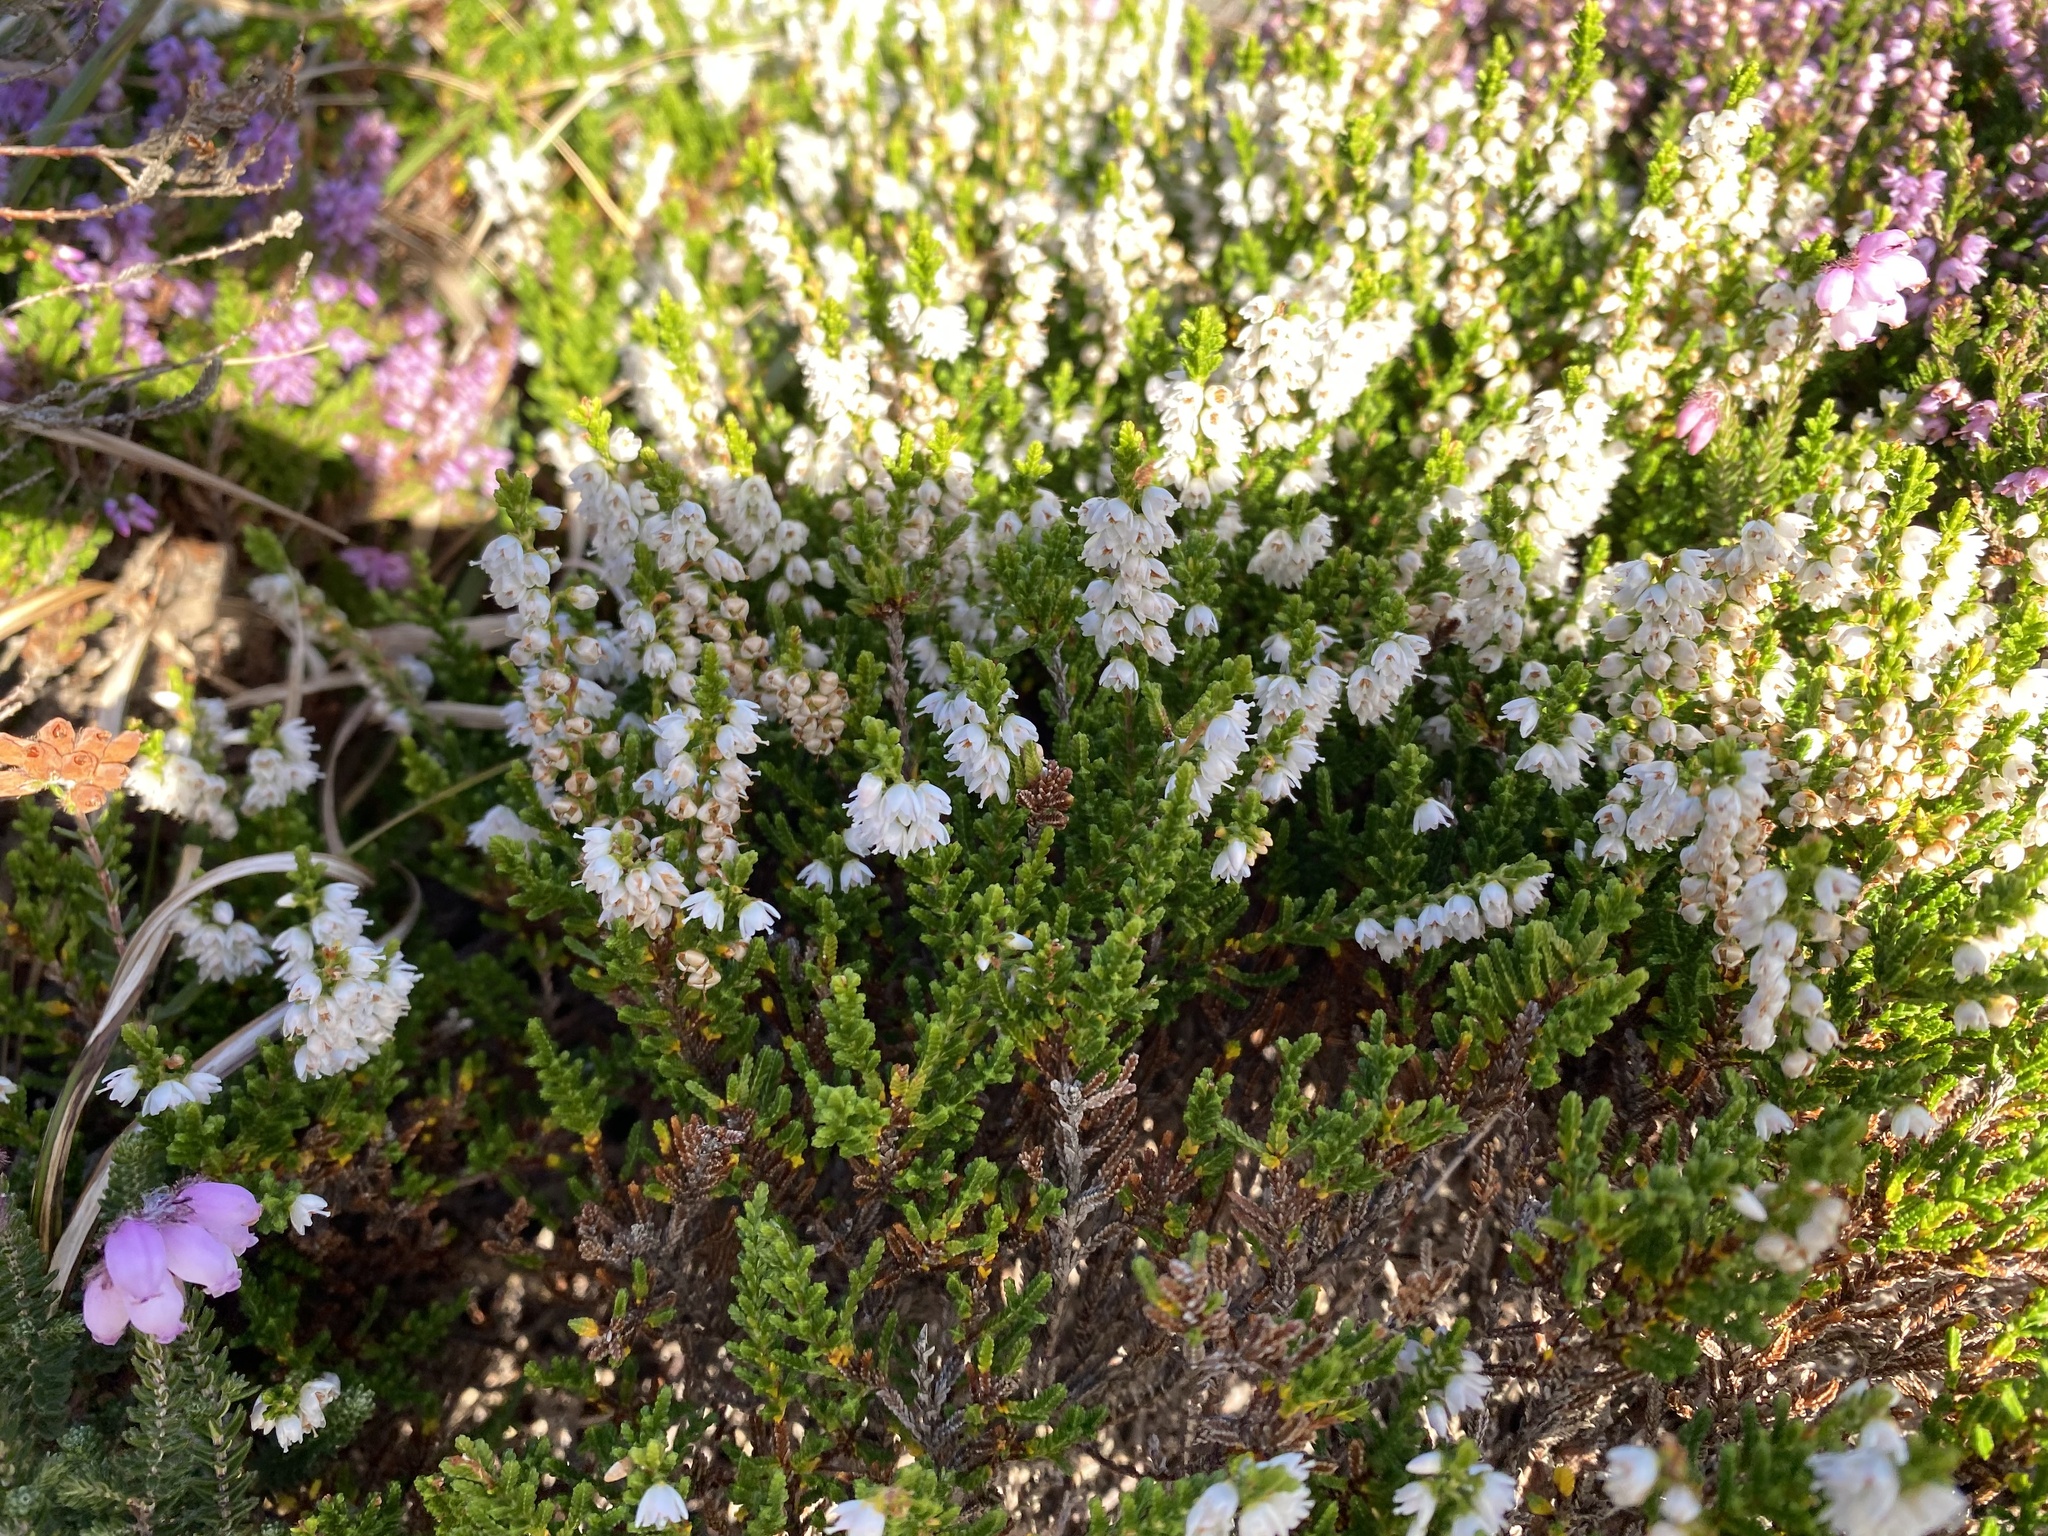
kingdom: Plantae
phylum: Tracheophyta
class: Magnoliopsida
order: Ericales
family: Ericaceae
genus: Calluna
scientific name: Calluna vulgaris
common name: Heather
